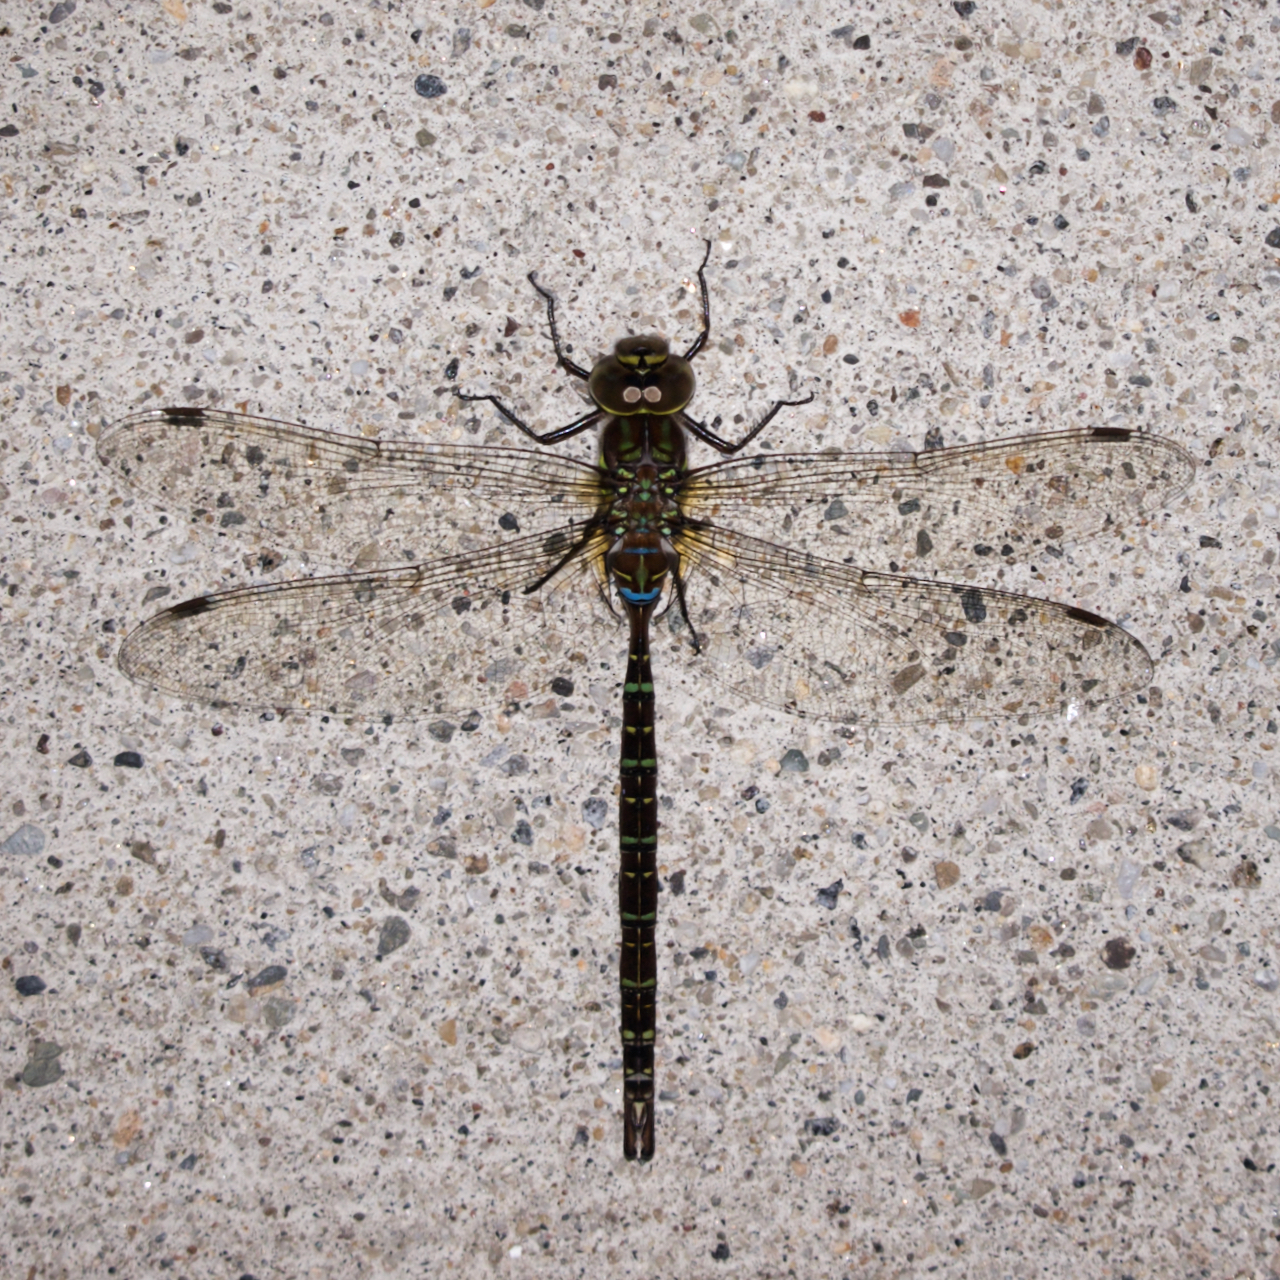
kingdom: Animalia
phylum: Arthropoda
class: Insecta
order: Odonata
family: Aeshnidae
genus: Aeshna
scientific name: Aeshna umbrosa
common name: Shadow darner
